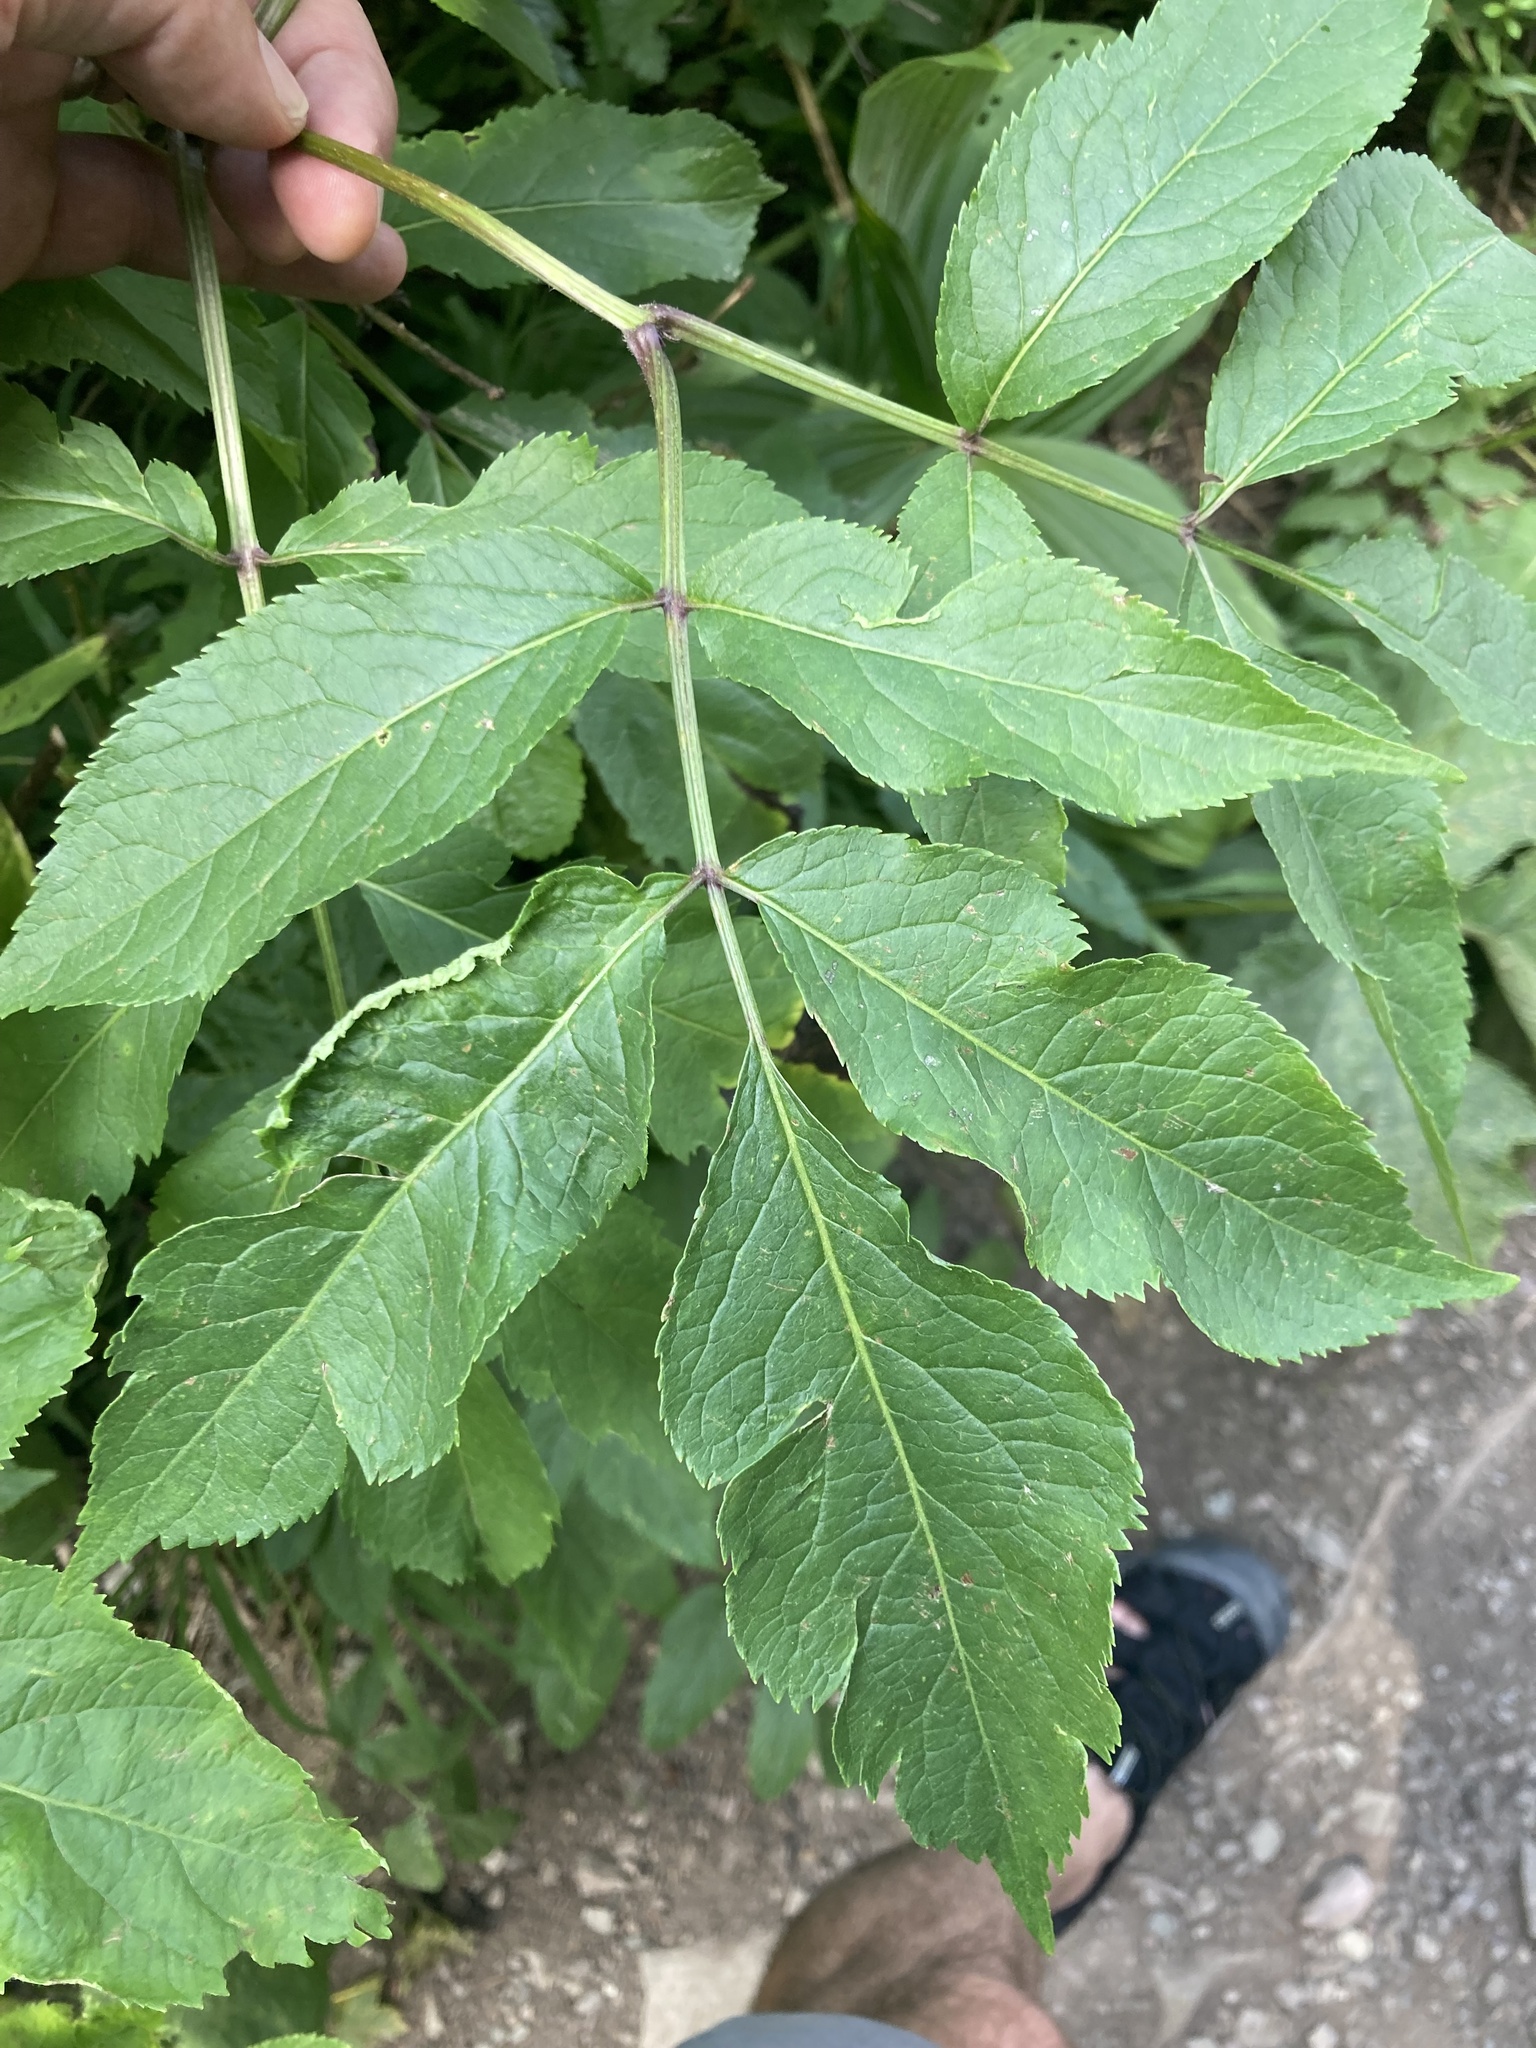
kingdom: Plantae
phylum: Tracheophyta
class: Magnoliopsida
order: Dipsacales
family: Viburnaceae
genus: Sambucus
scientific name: Sambucus racemosa
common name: Red-berried elder
